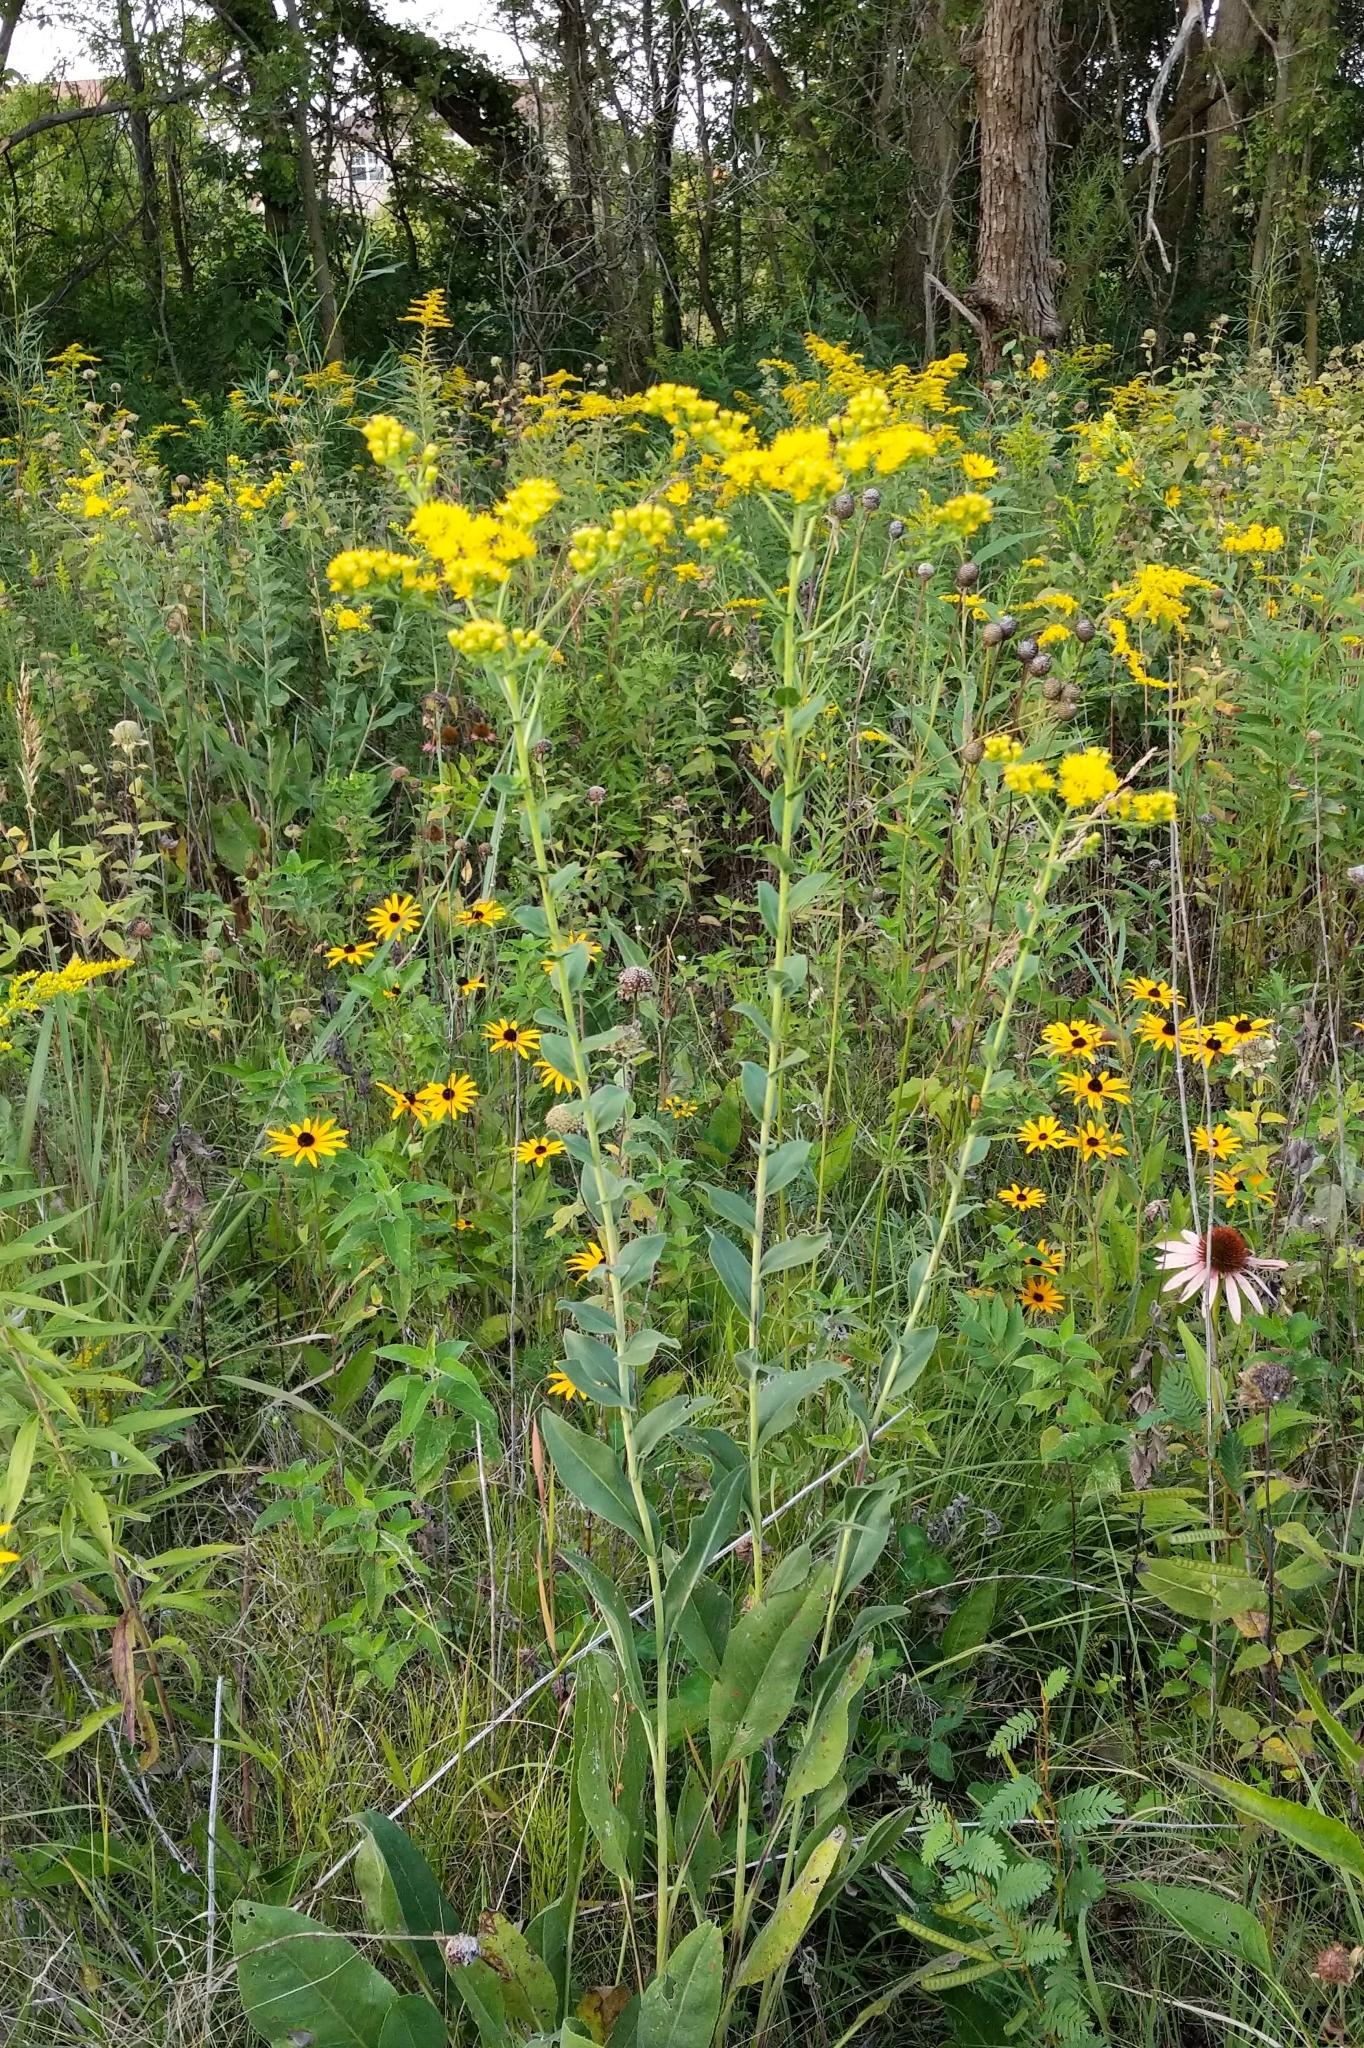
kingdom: Plantae
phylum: Tracheophyta
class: Magnoliopsida
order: Asterales
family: Asteraceae
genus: Solidago
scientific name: Solidago rigida
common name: Rigid goldenrod
